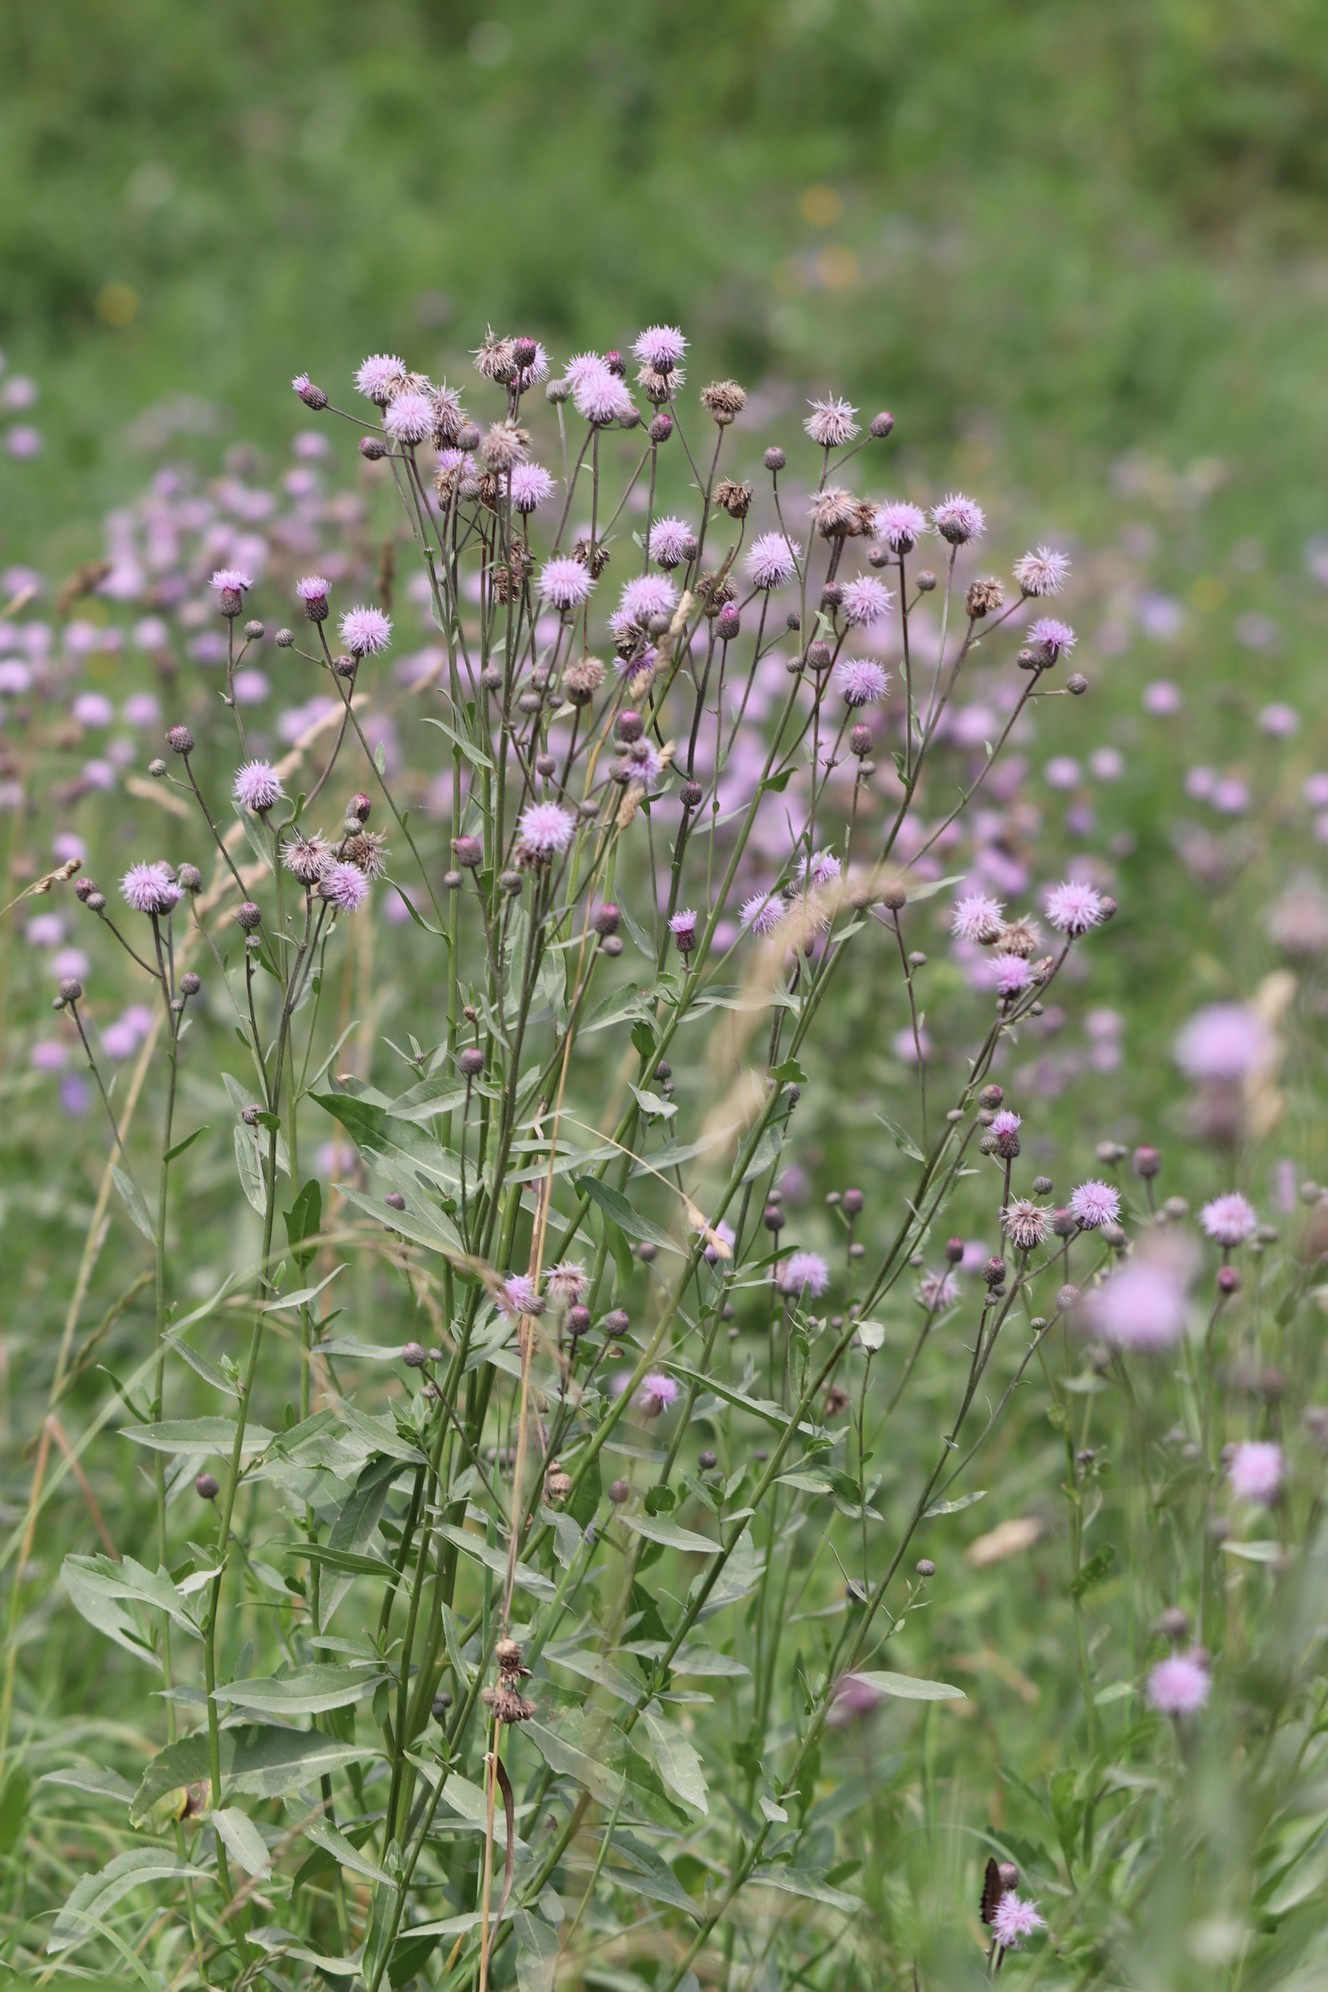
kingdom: Plantae
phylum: Tracheophyta
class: Magnoliopsida
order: Asterales
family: Asteraceae
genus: Cirsium
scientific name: Cirsium arvense
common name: Creeping thistle
